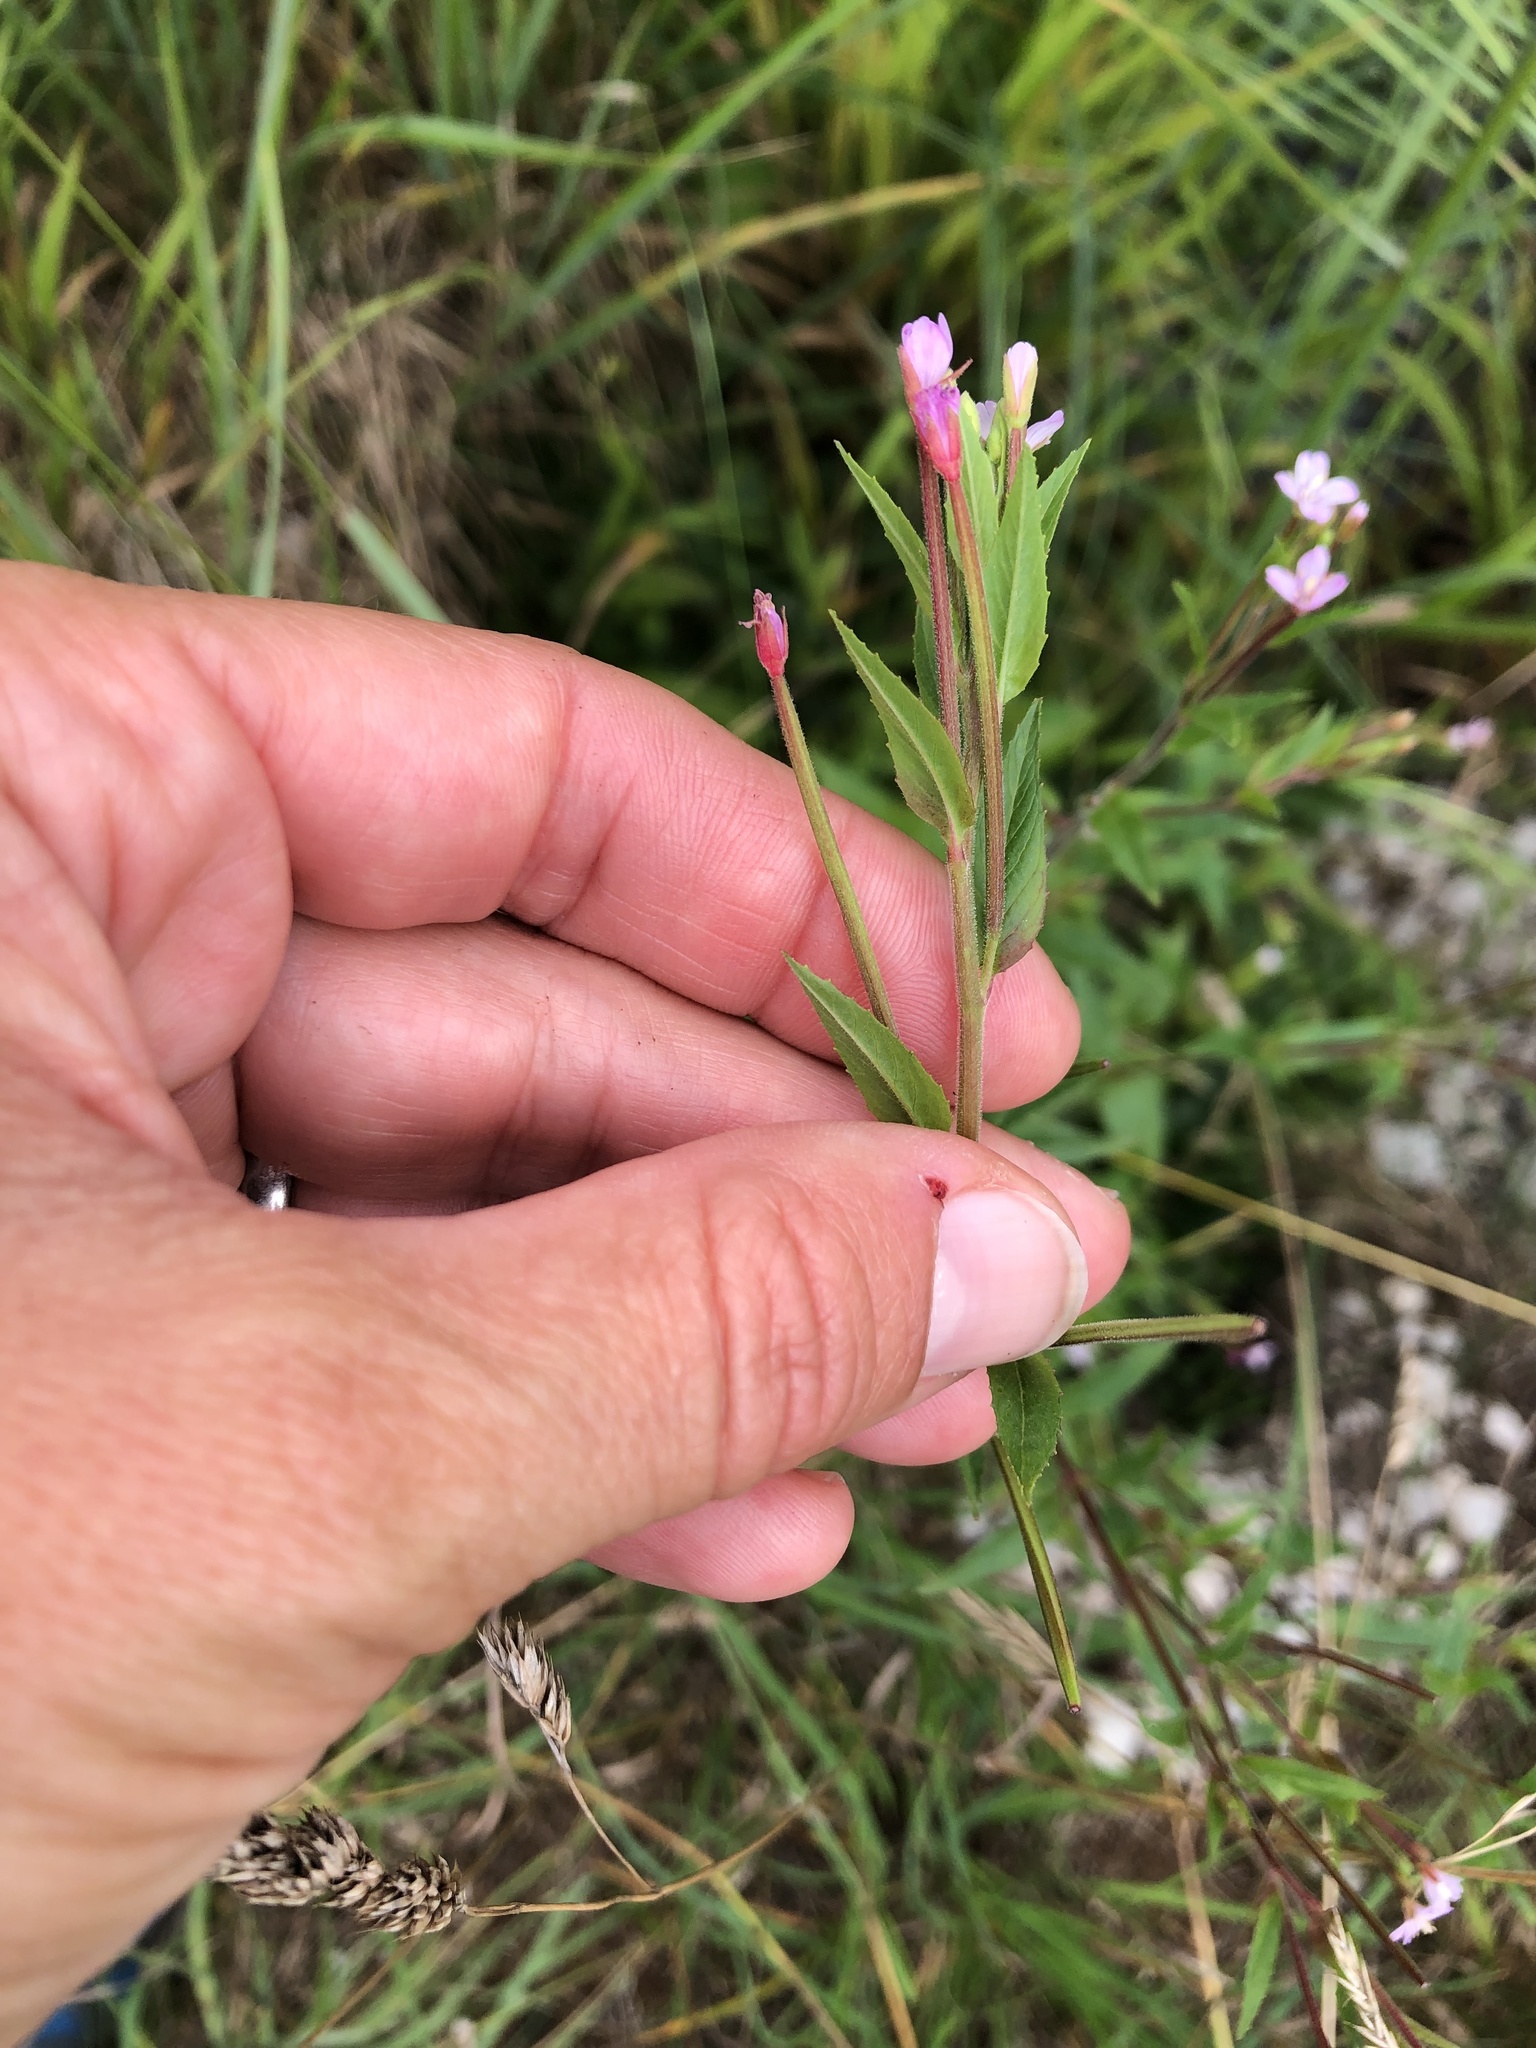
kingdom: Plantae
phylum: Tracheophyta
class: Magnoliopsida
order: Myrtales
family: Onagraceae
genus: Epilobium
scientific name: Epilobium ciliatum
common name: American willowherb
